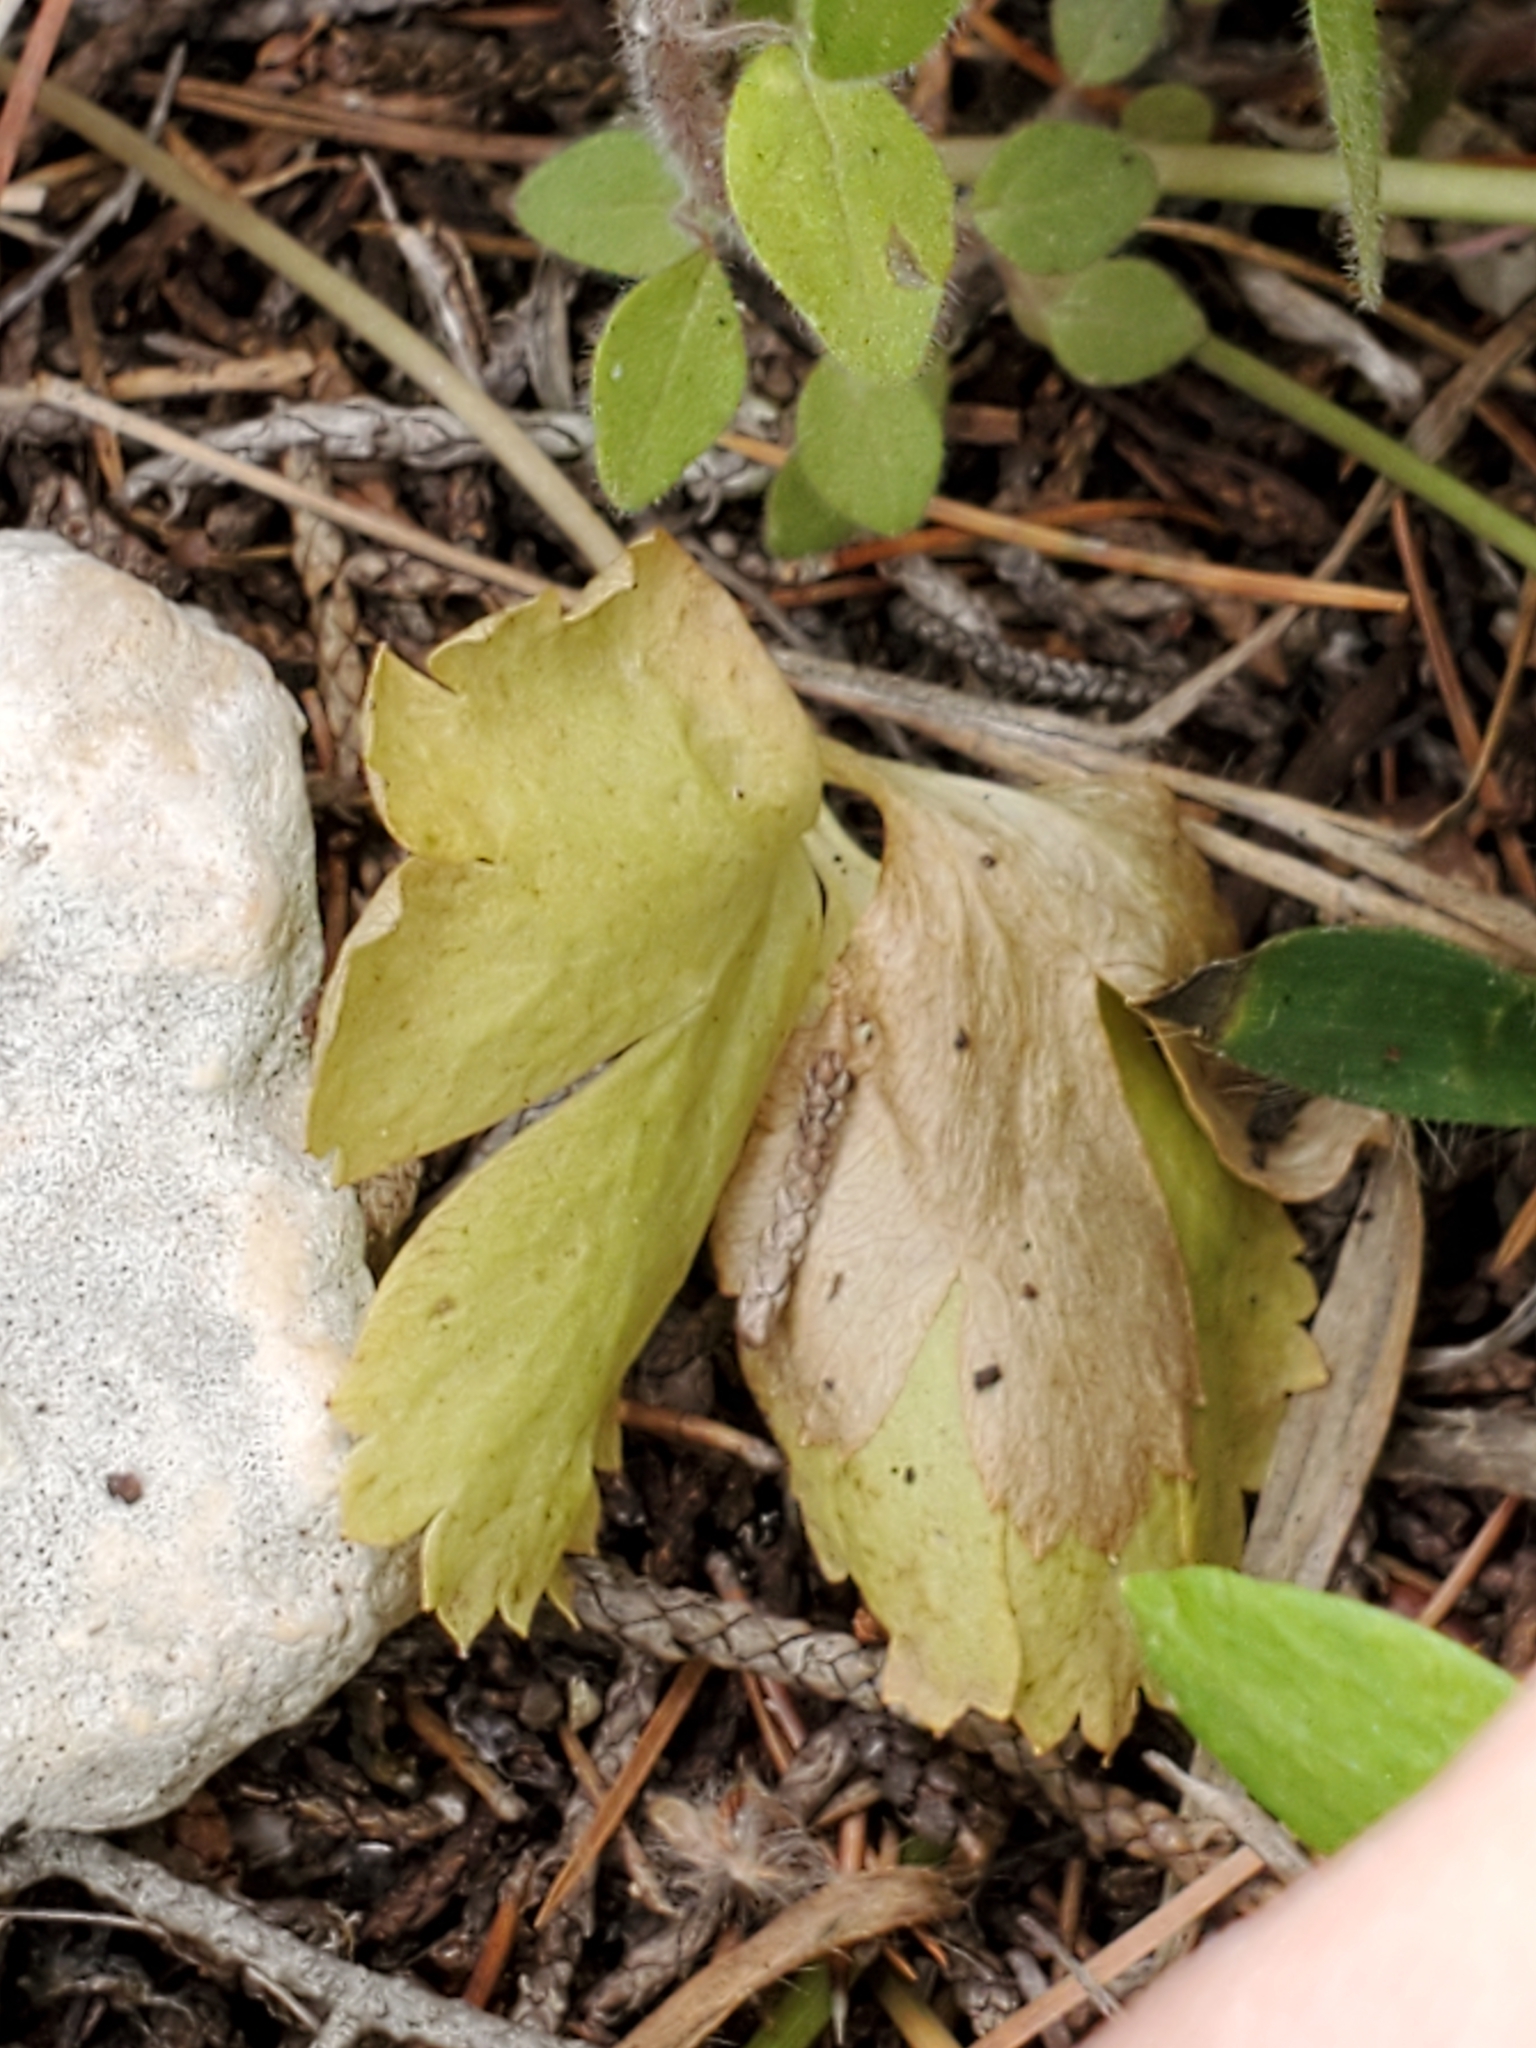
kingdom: Plantae
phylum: Tracheophyta
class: Magnoliopsida
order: Ranunculales
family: Ranunculaceae
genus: Anemone
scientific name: Anemone edwardsiana
